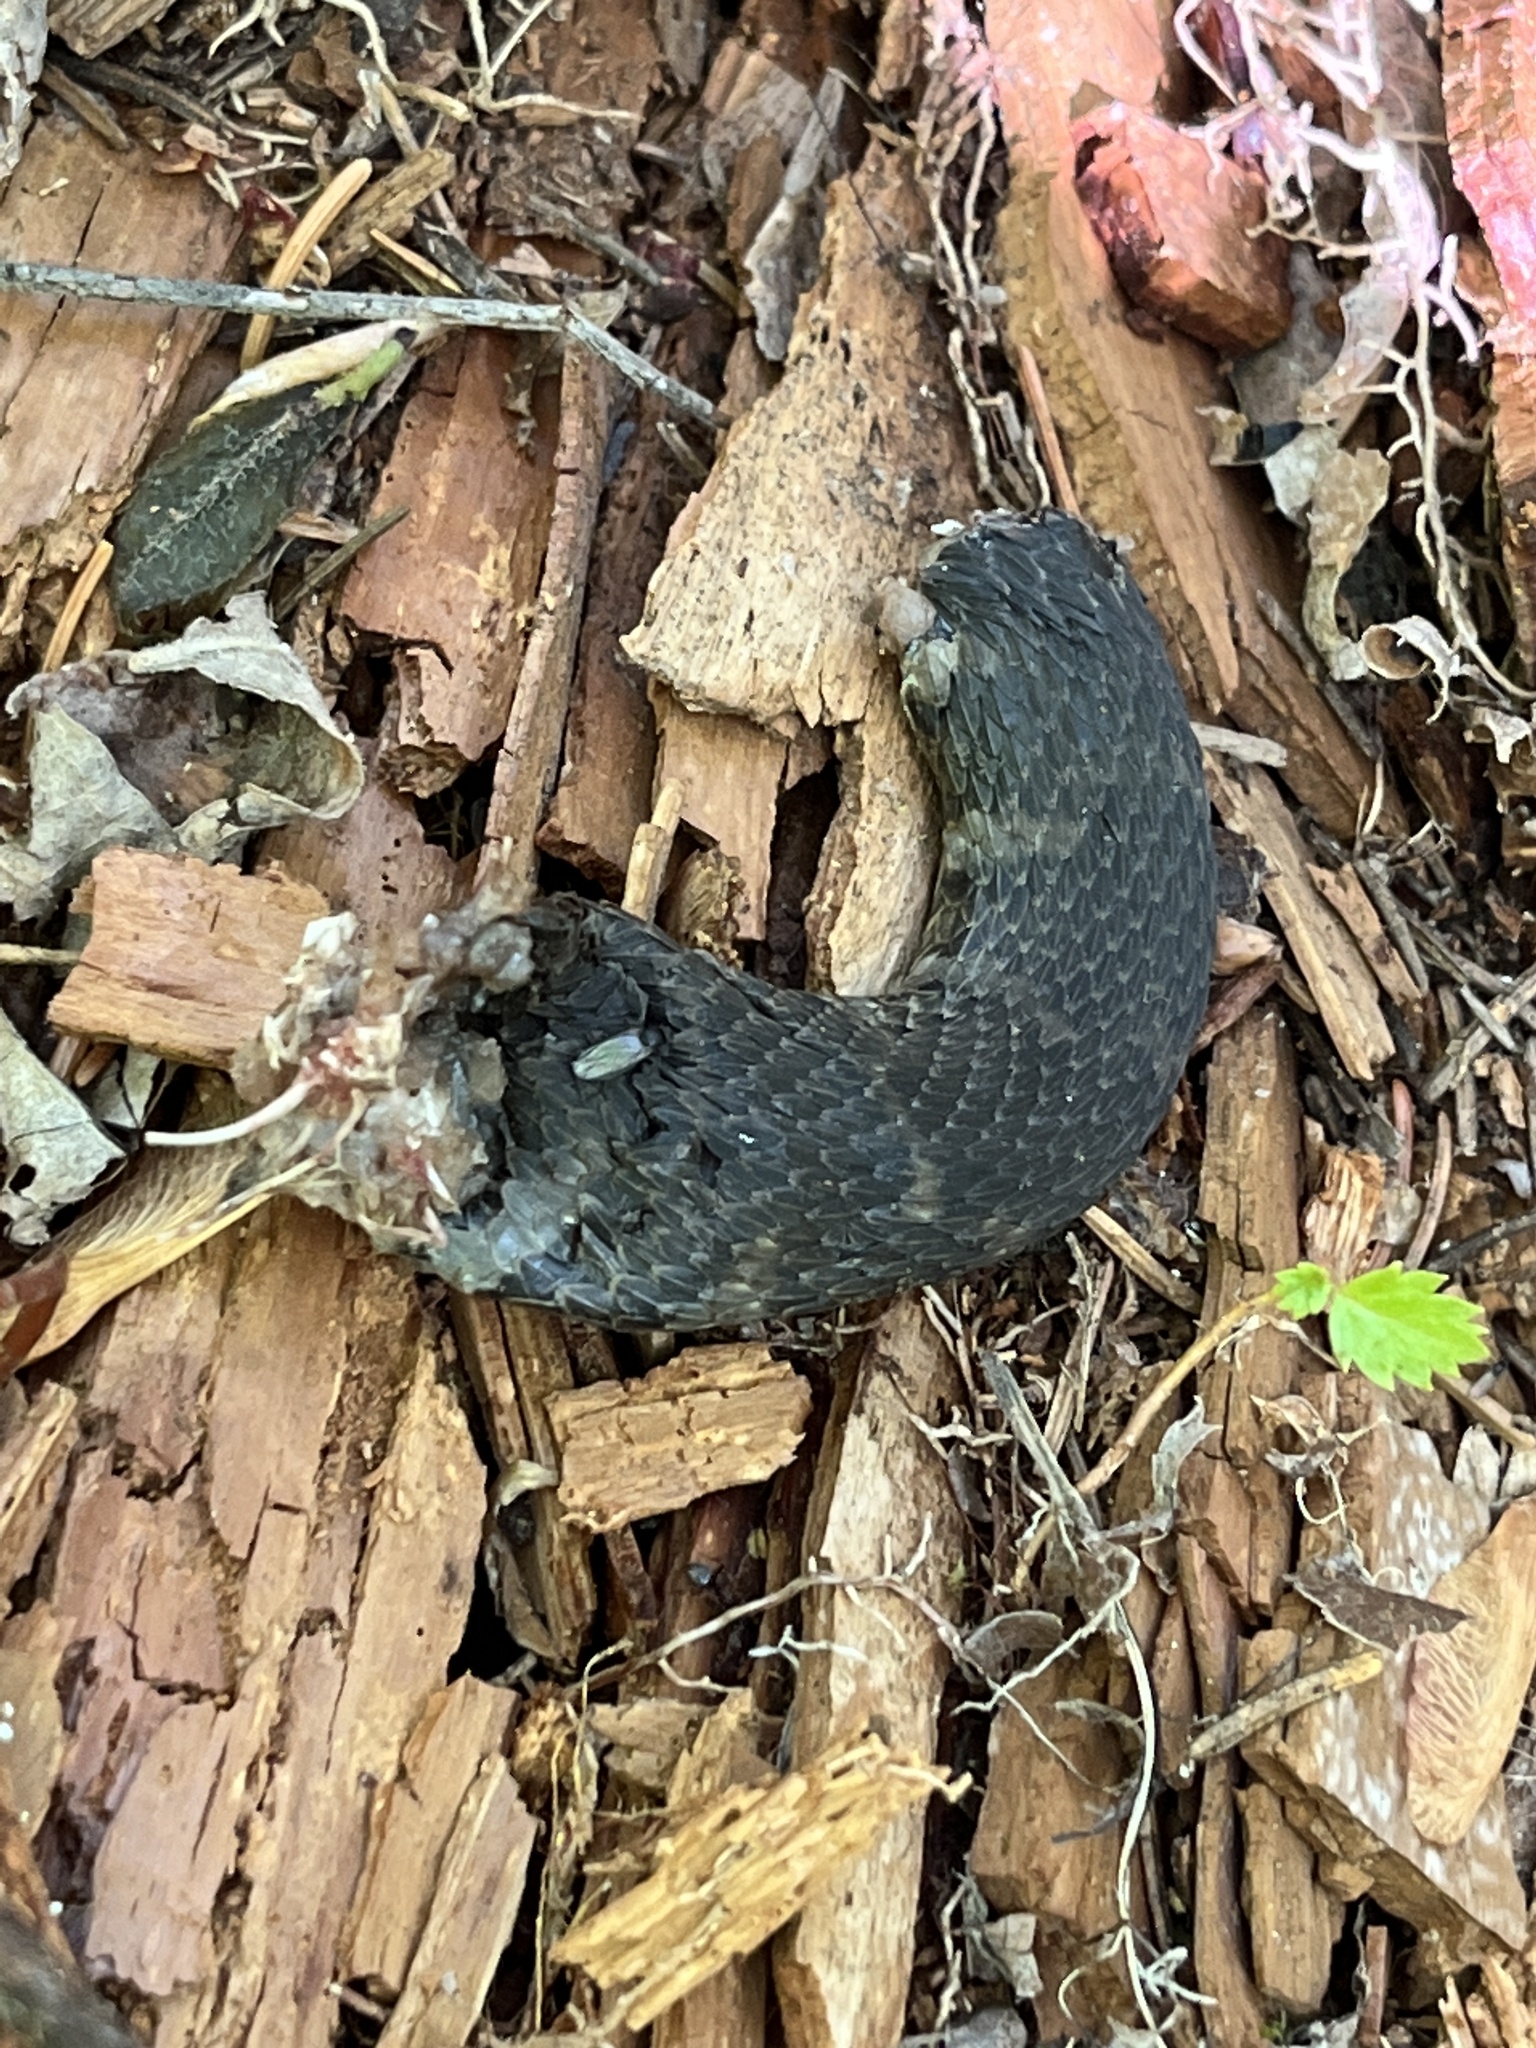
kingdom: Animalia
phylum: Chordata
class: Squamata
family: Colubridae
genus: Nerodia
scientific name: Nerodia sipedon
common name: Northern water snake
